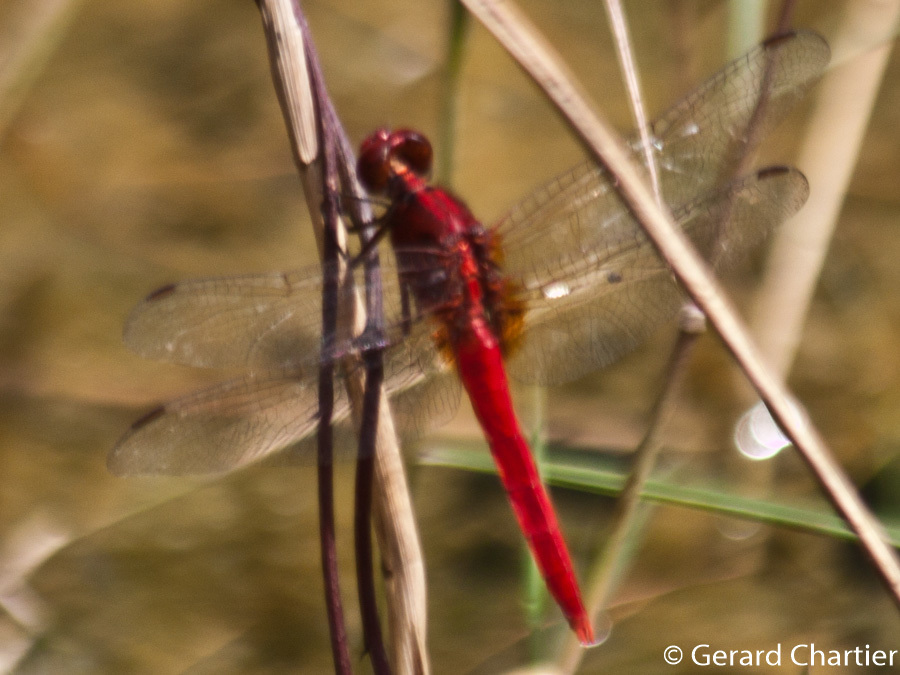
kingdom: Animalia
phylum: Arthropoda
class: Insecta
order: Odonata
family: Libellulidae
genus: Rhodothemis
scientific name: Rhodothemis rufa
